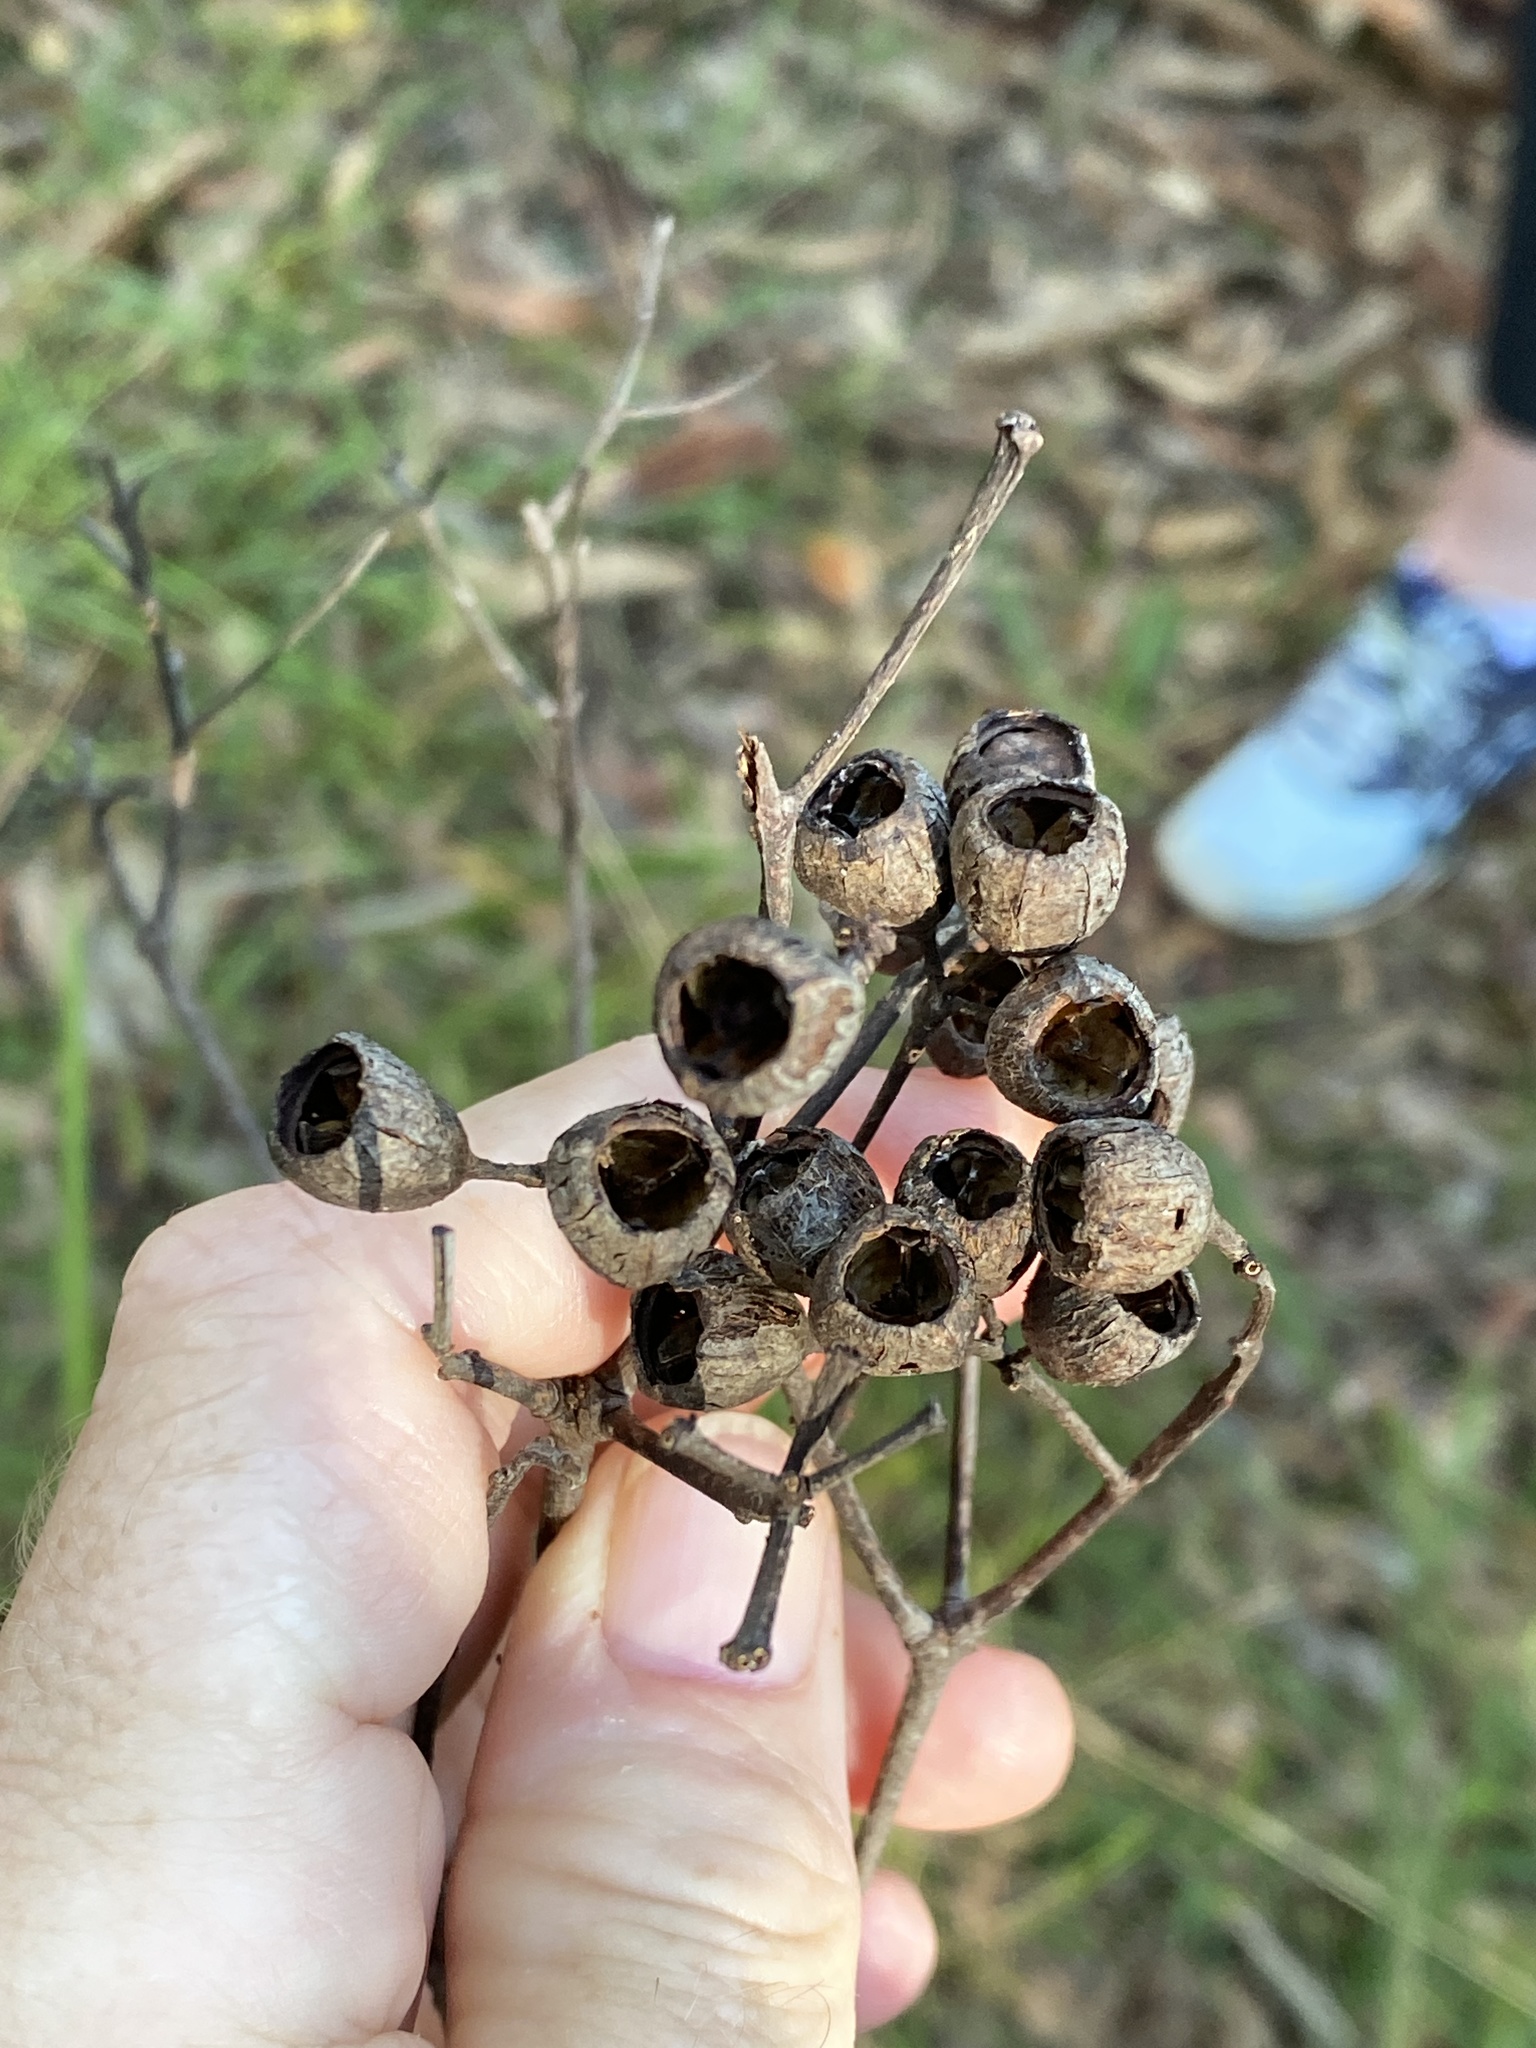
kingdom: Plantae
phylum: Tracheophyta
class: Magnoliopsida
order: Myrtales
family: Myrtaceae
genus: Angophora
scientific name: Angophora leiocarpa
